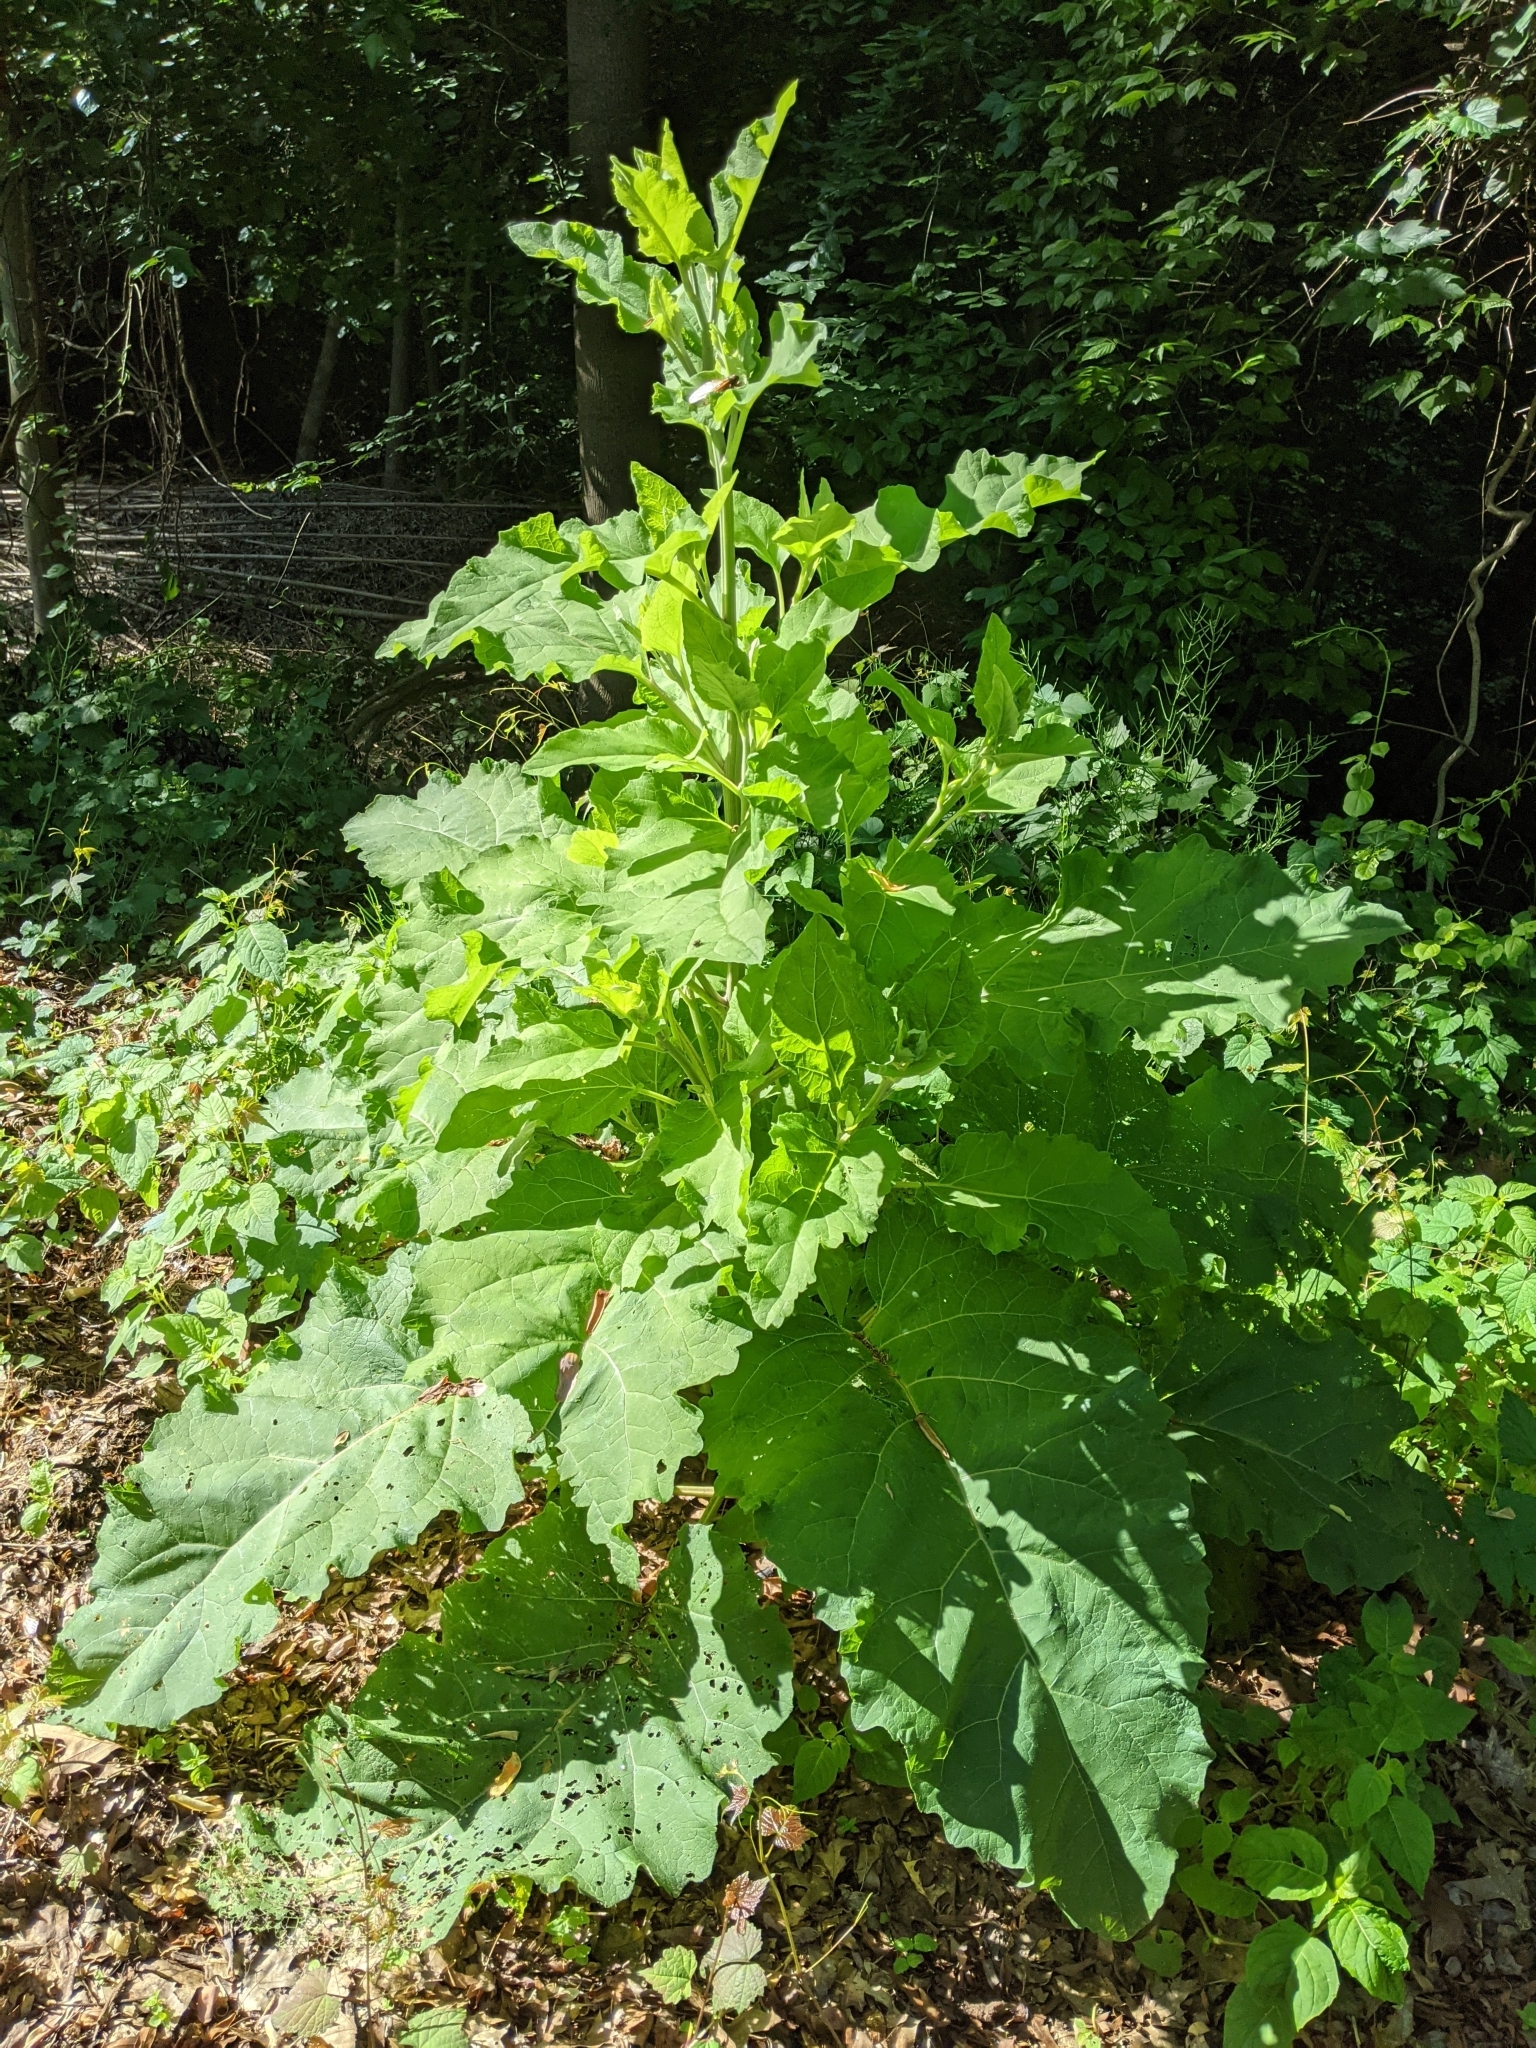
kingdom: Plantae
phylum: Tracheophyta
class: Magnoliopsida
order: Asterales
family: Asteraceae
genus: Arctium
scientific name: Arctium lappa
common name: Greater burdock
